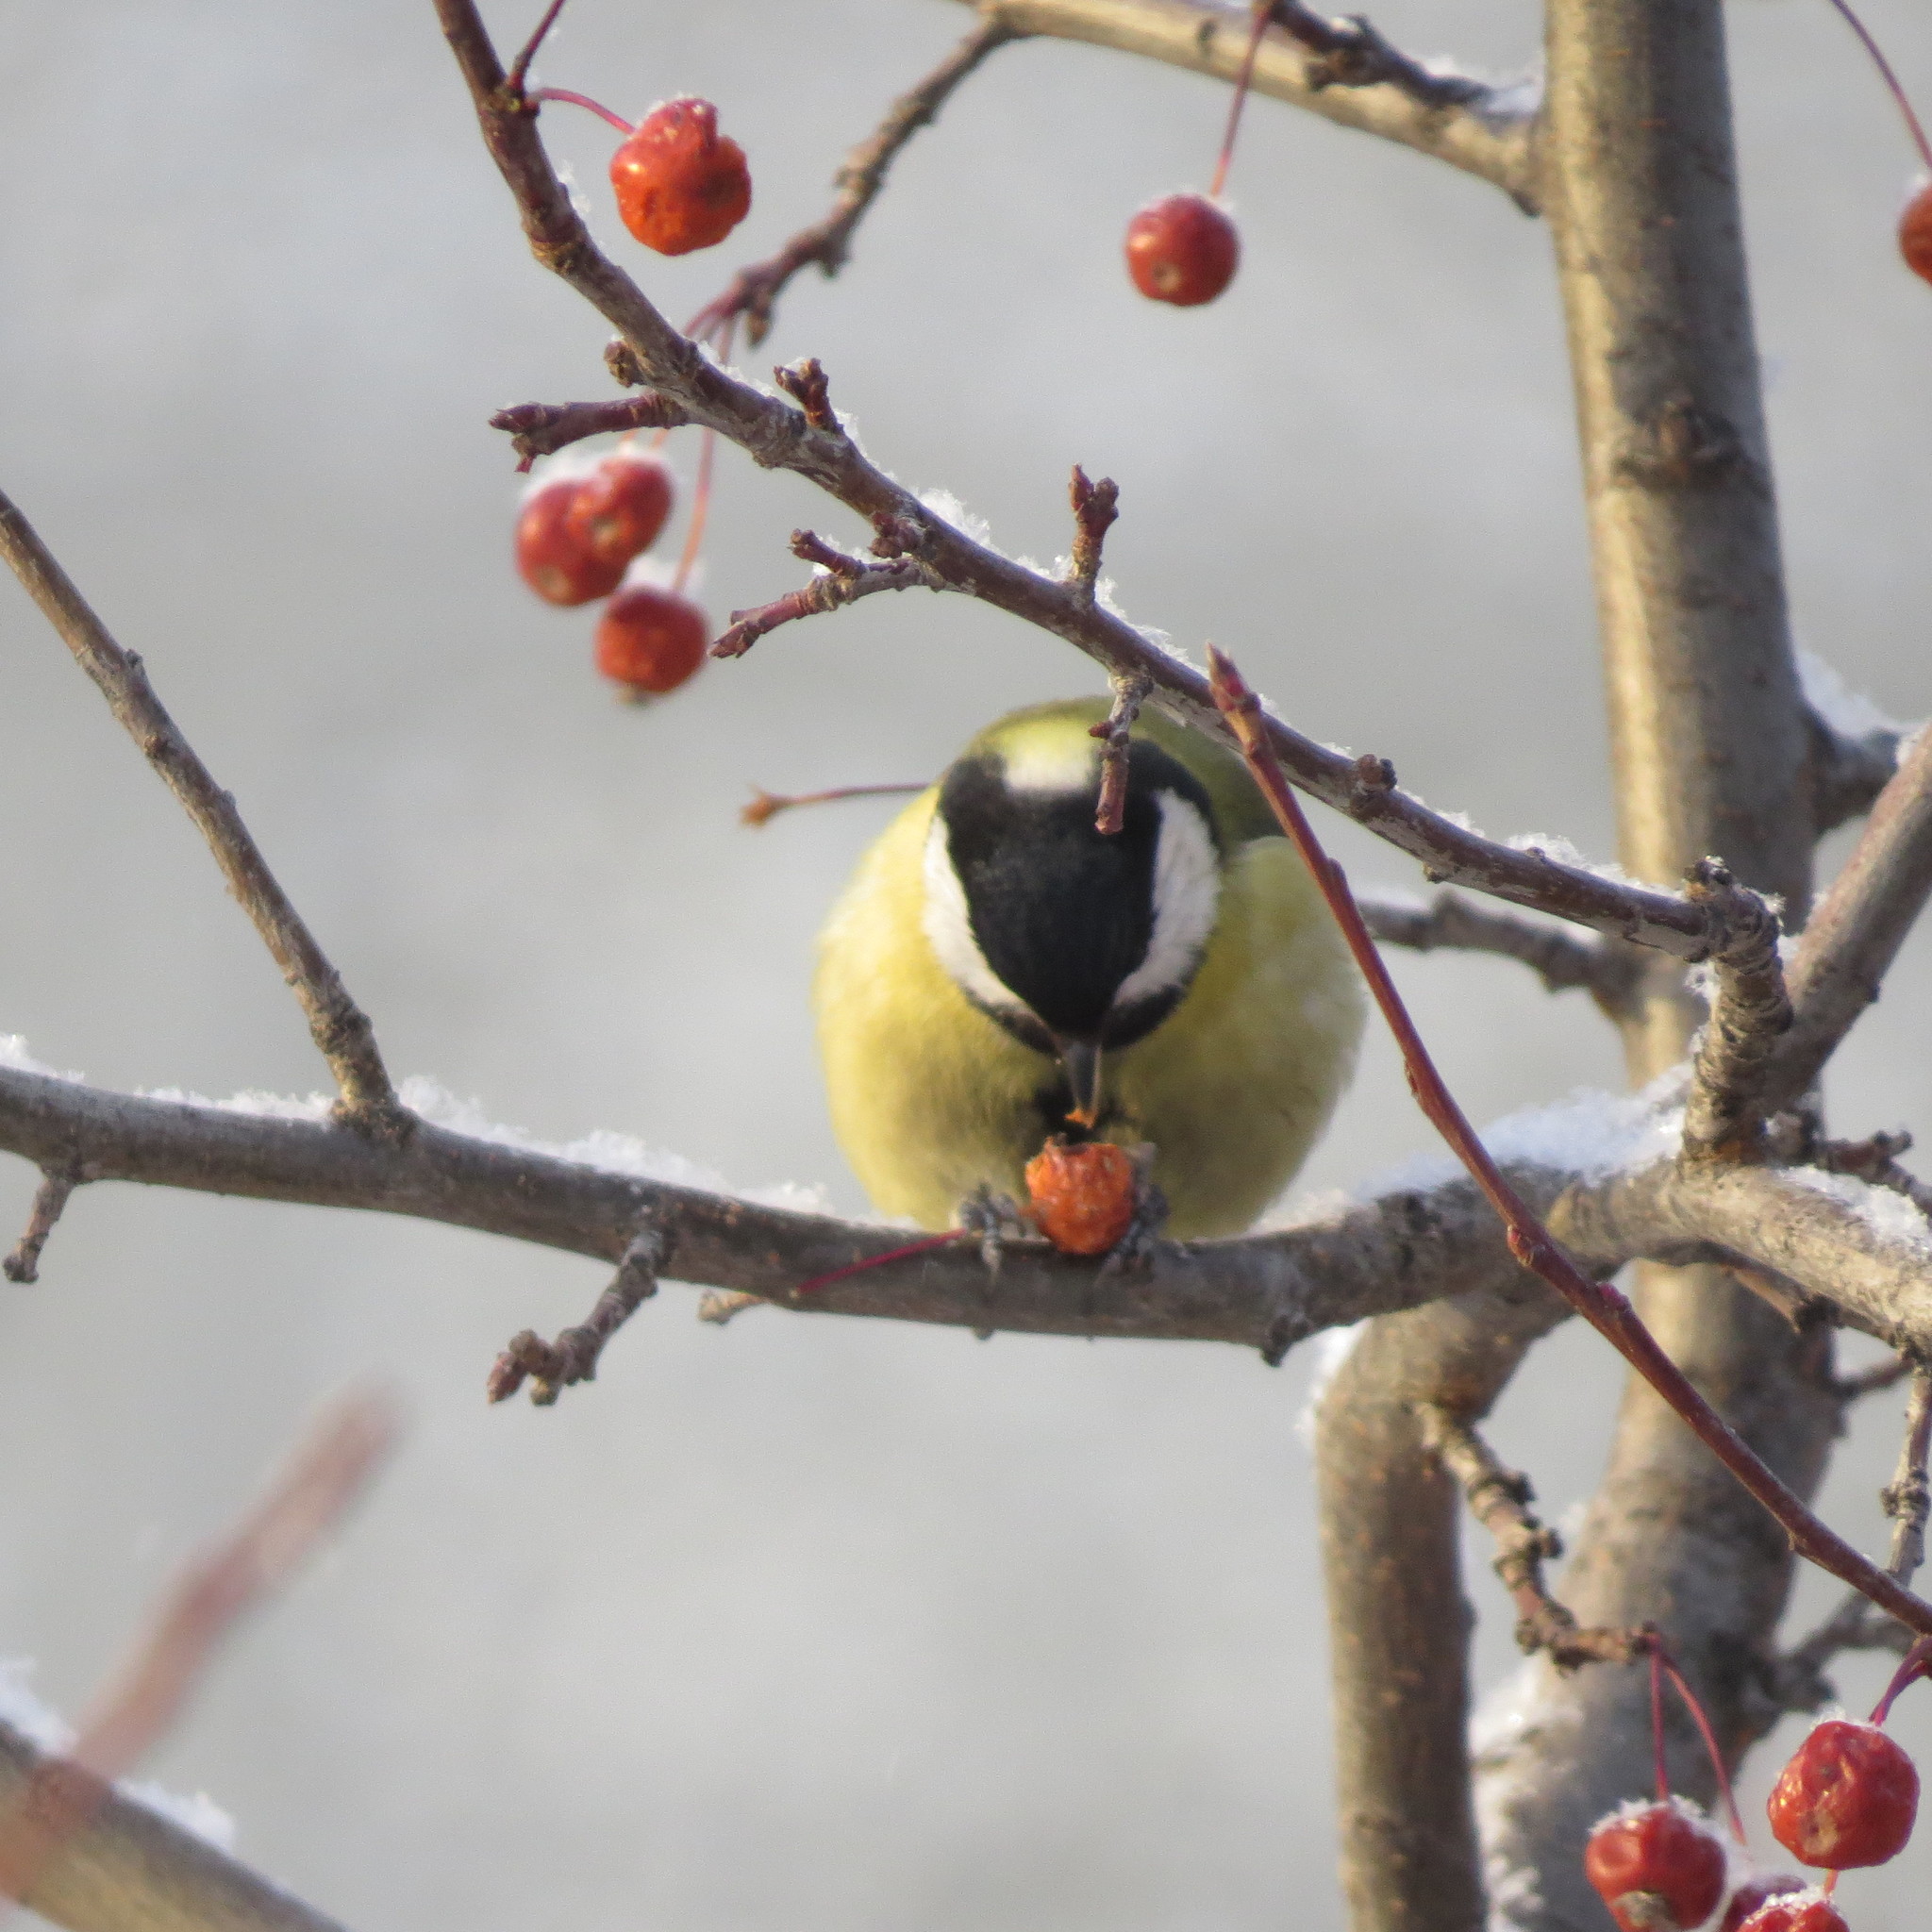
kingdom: Animalia
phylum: Chordata
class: Aves
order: Passeriformes
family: Paridae
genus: Parus
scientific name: Parus major
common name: Great tit
